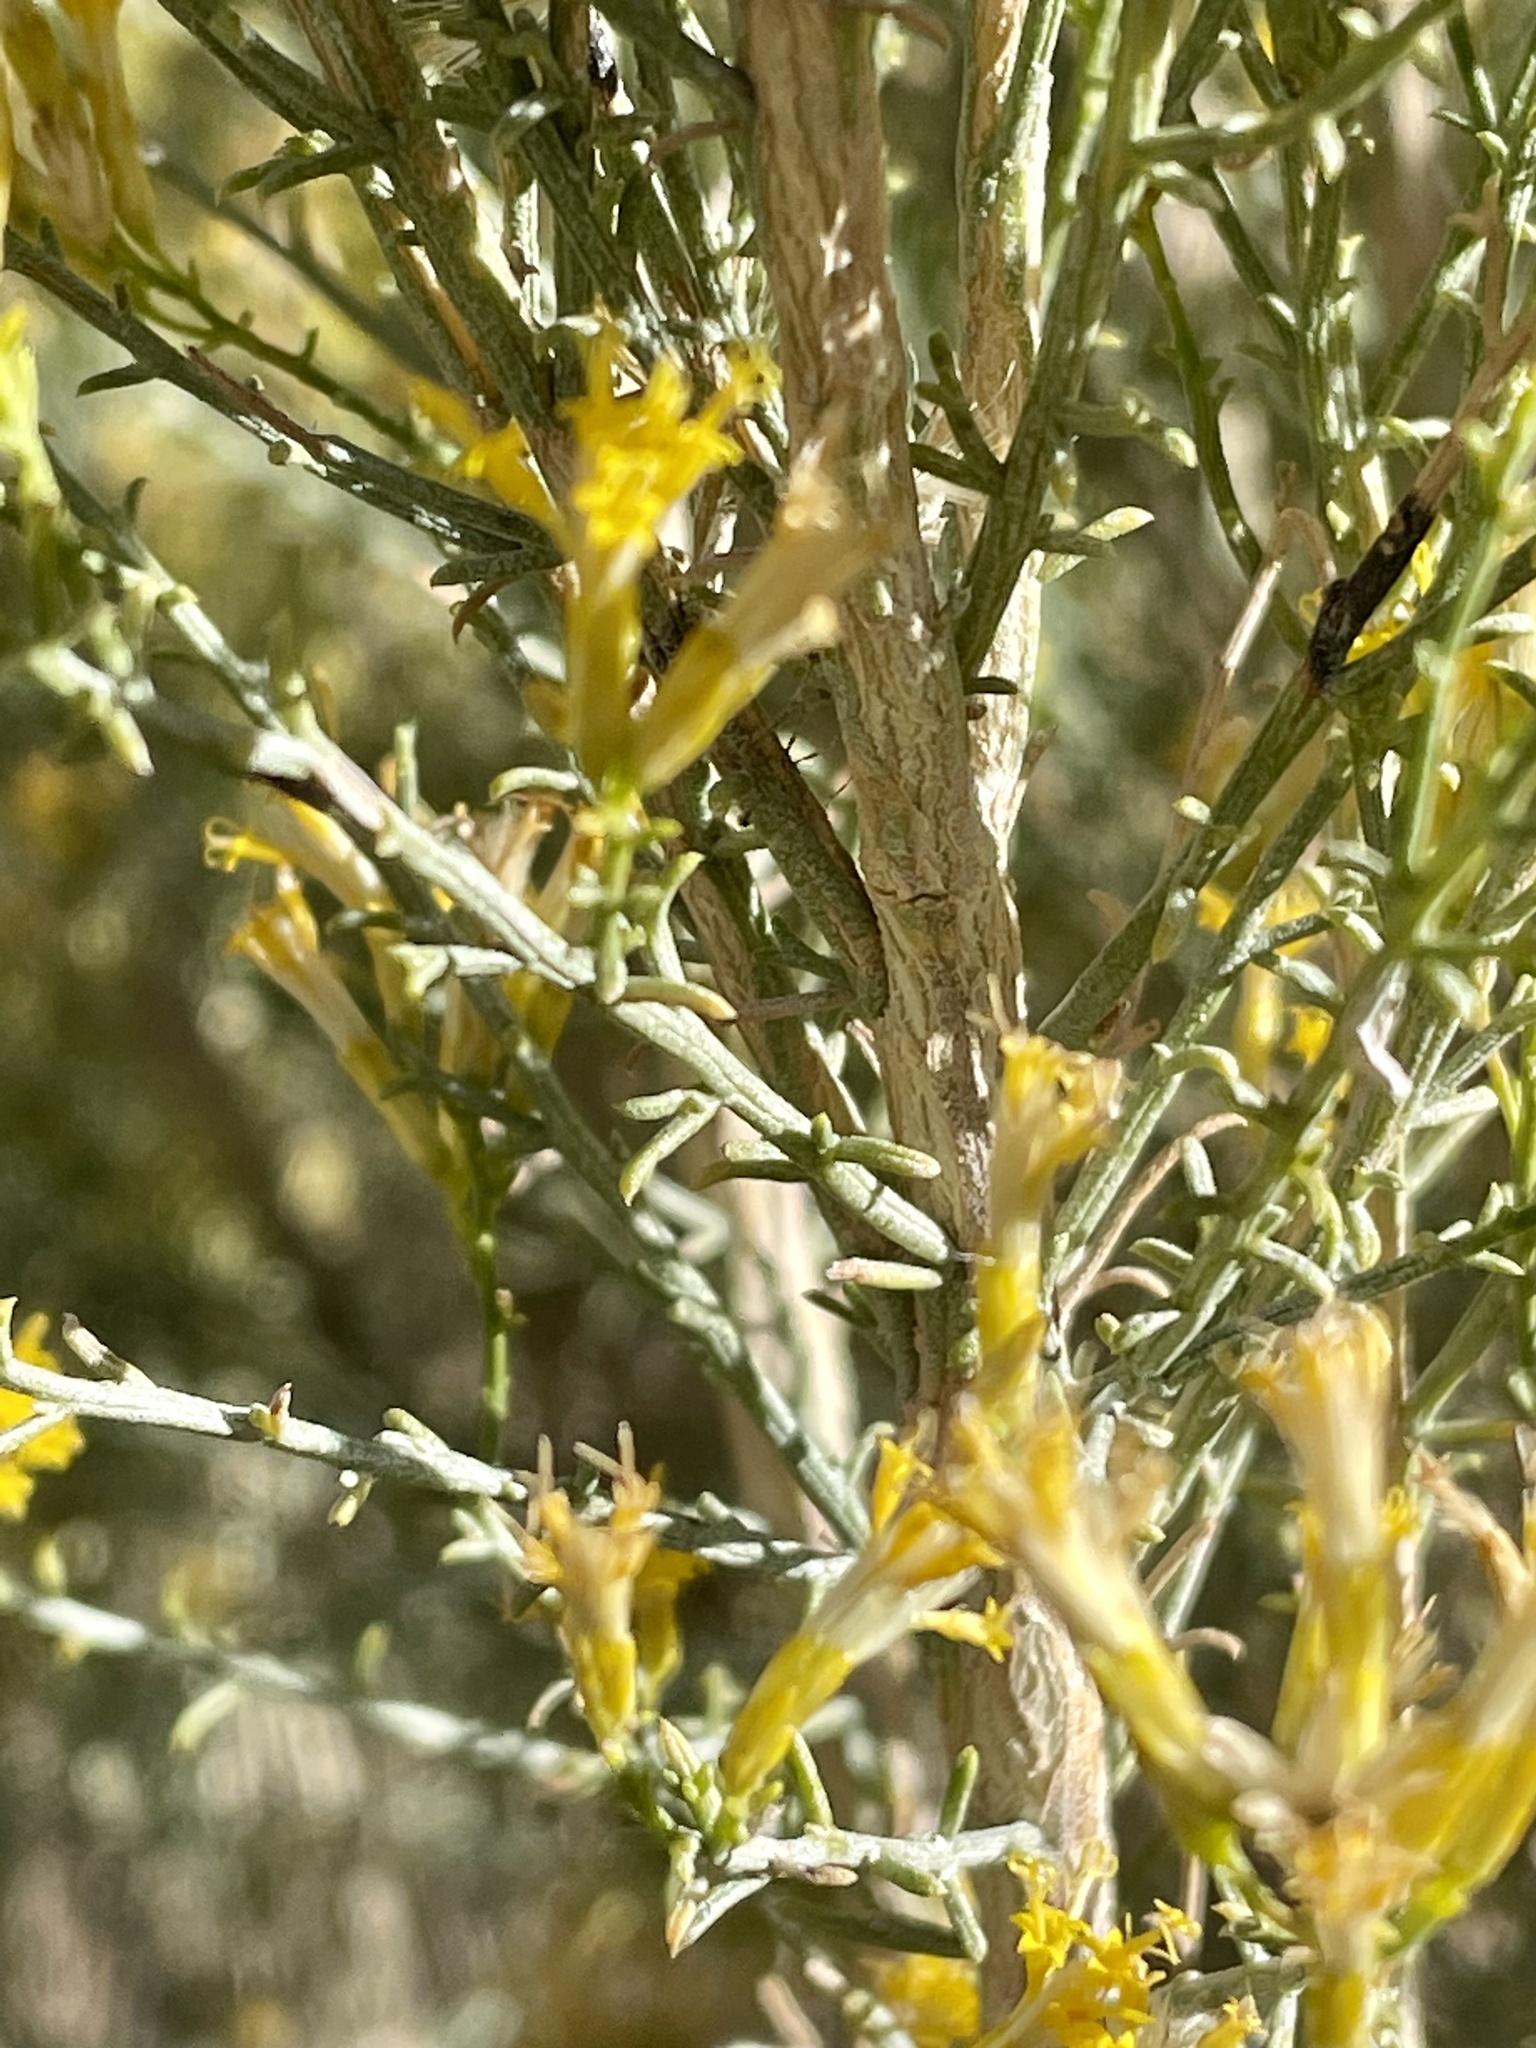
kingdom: Plantae
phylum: Tracheophyta
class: Magnoliopsida
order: Asterales
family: Asteraceae
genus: Ericameria
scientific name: Ericameria paniculata
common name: Punctate rabbitbrush
